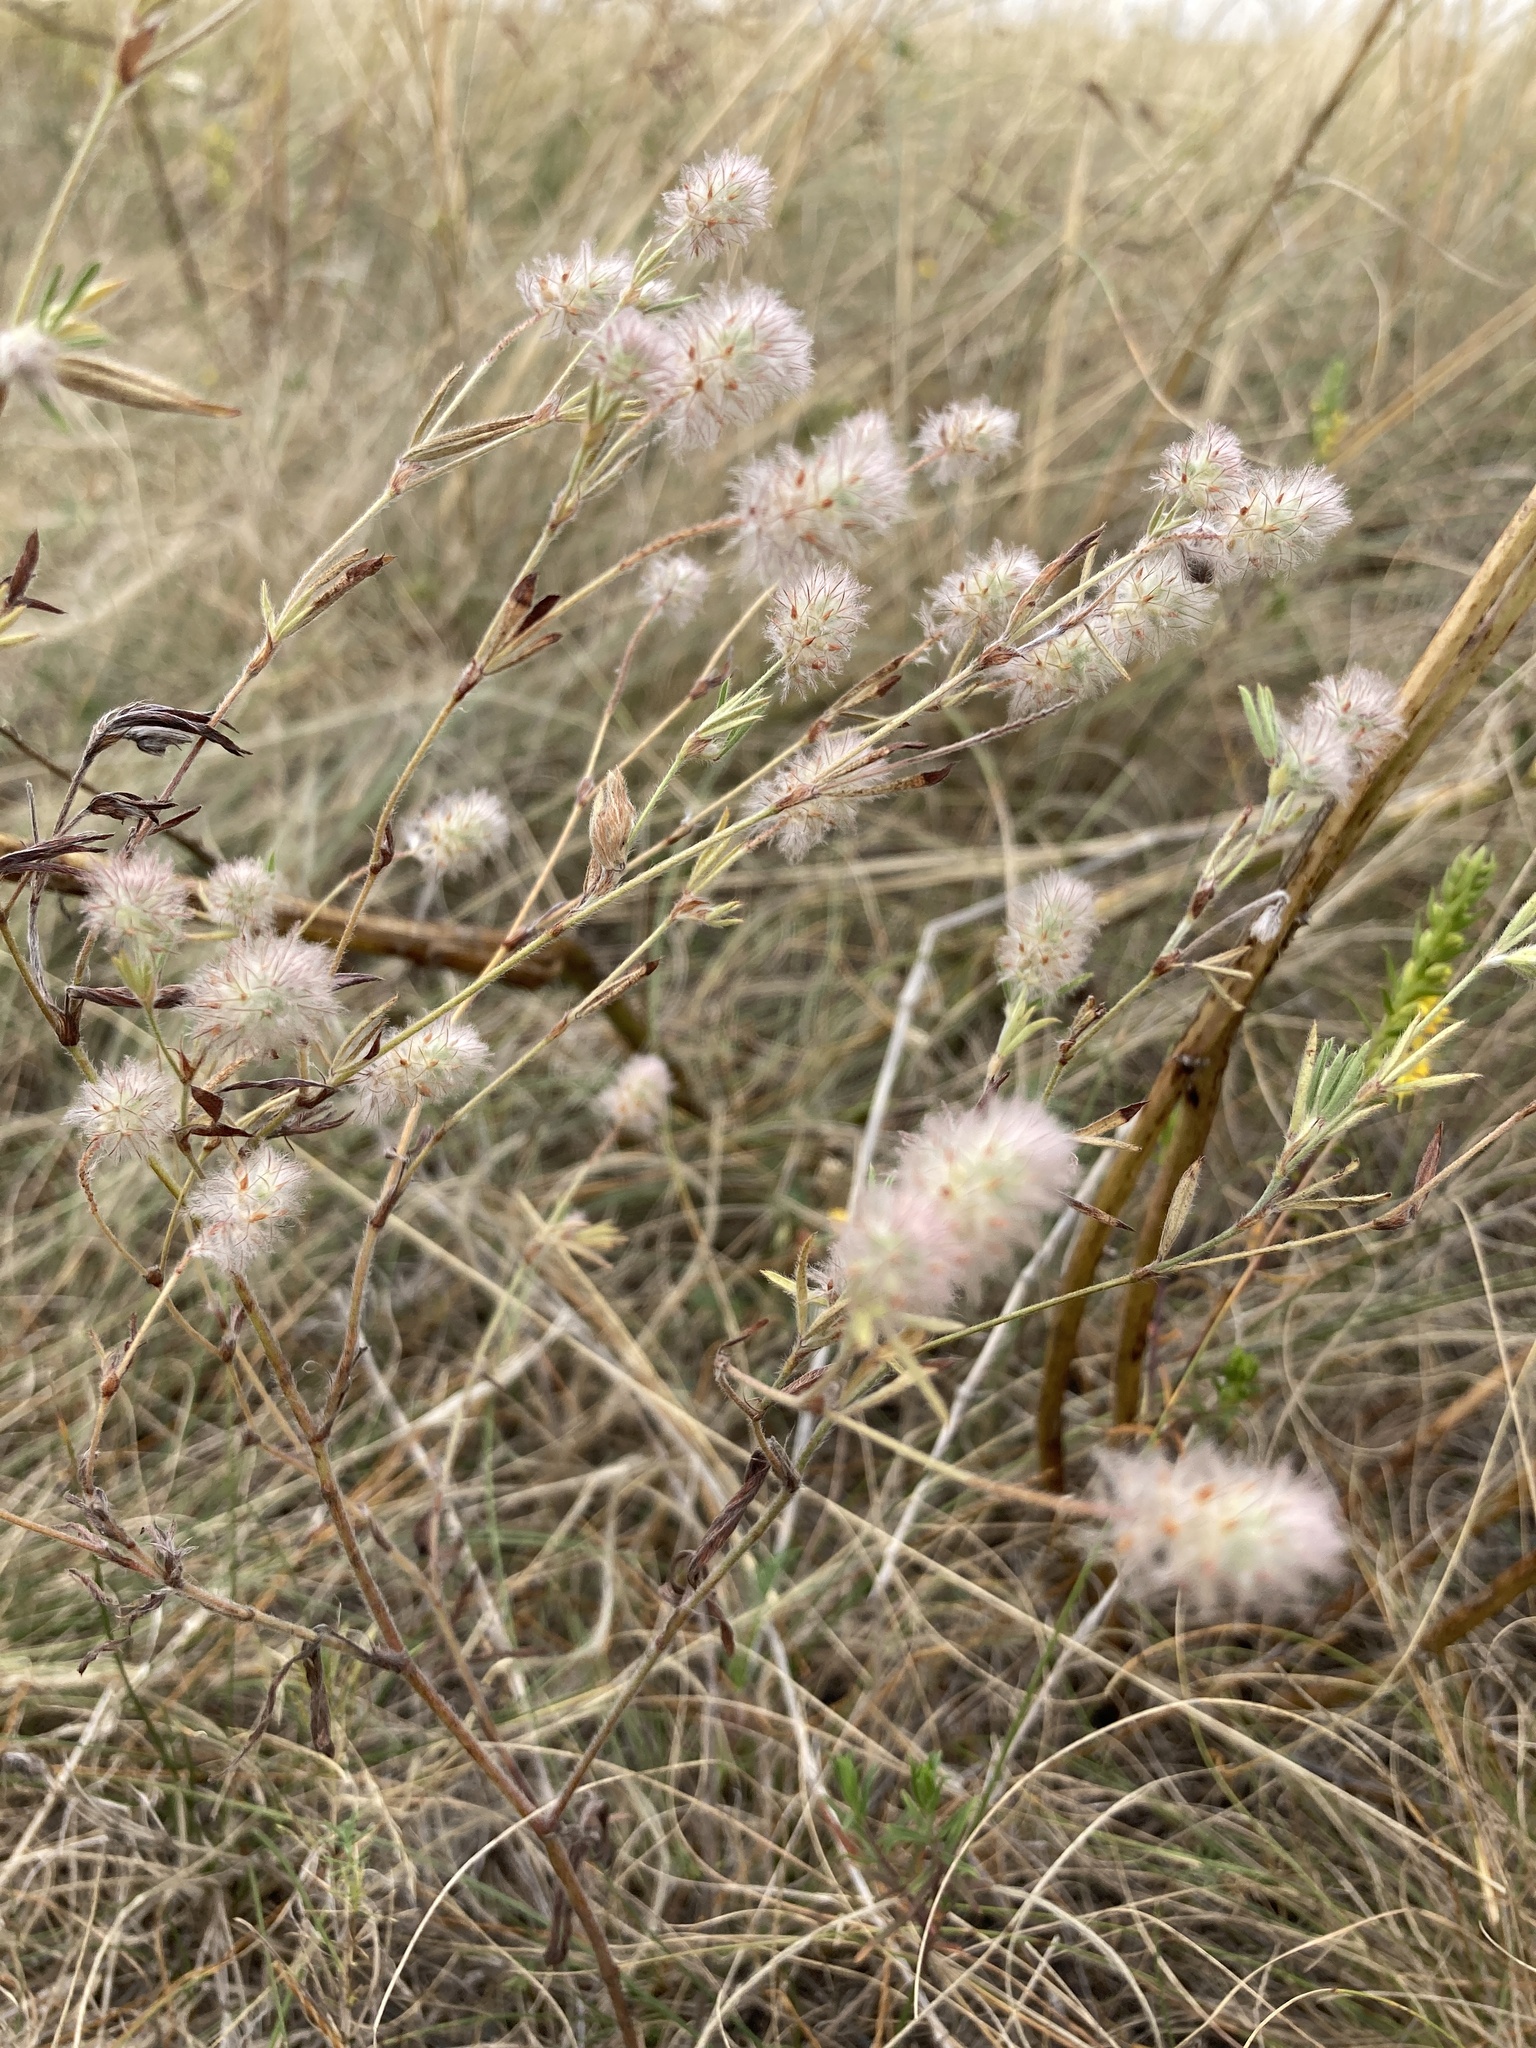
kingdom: Plantae
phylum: Tracheophyta
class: Magnoliopsida
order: Fabales
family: Fabaceae
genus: Trifolium
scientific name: Trifolium arvense
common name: Hare's-foot clover
